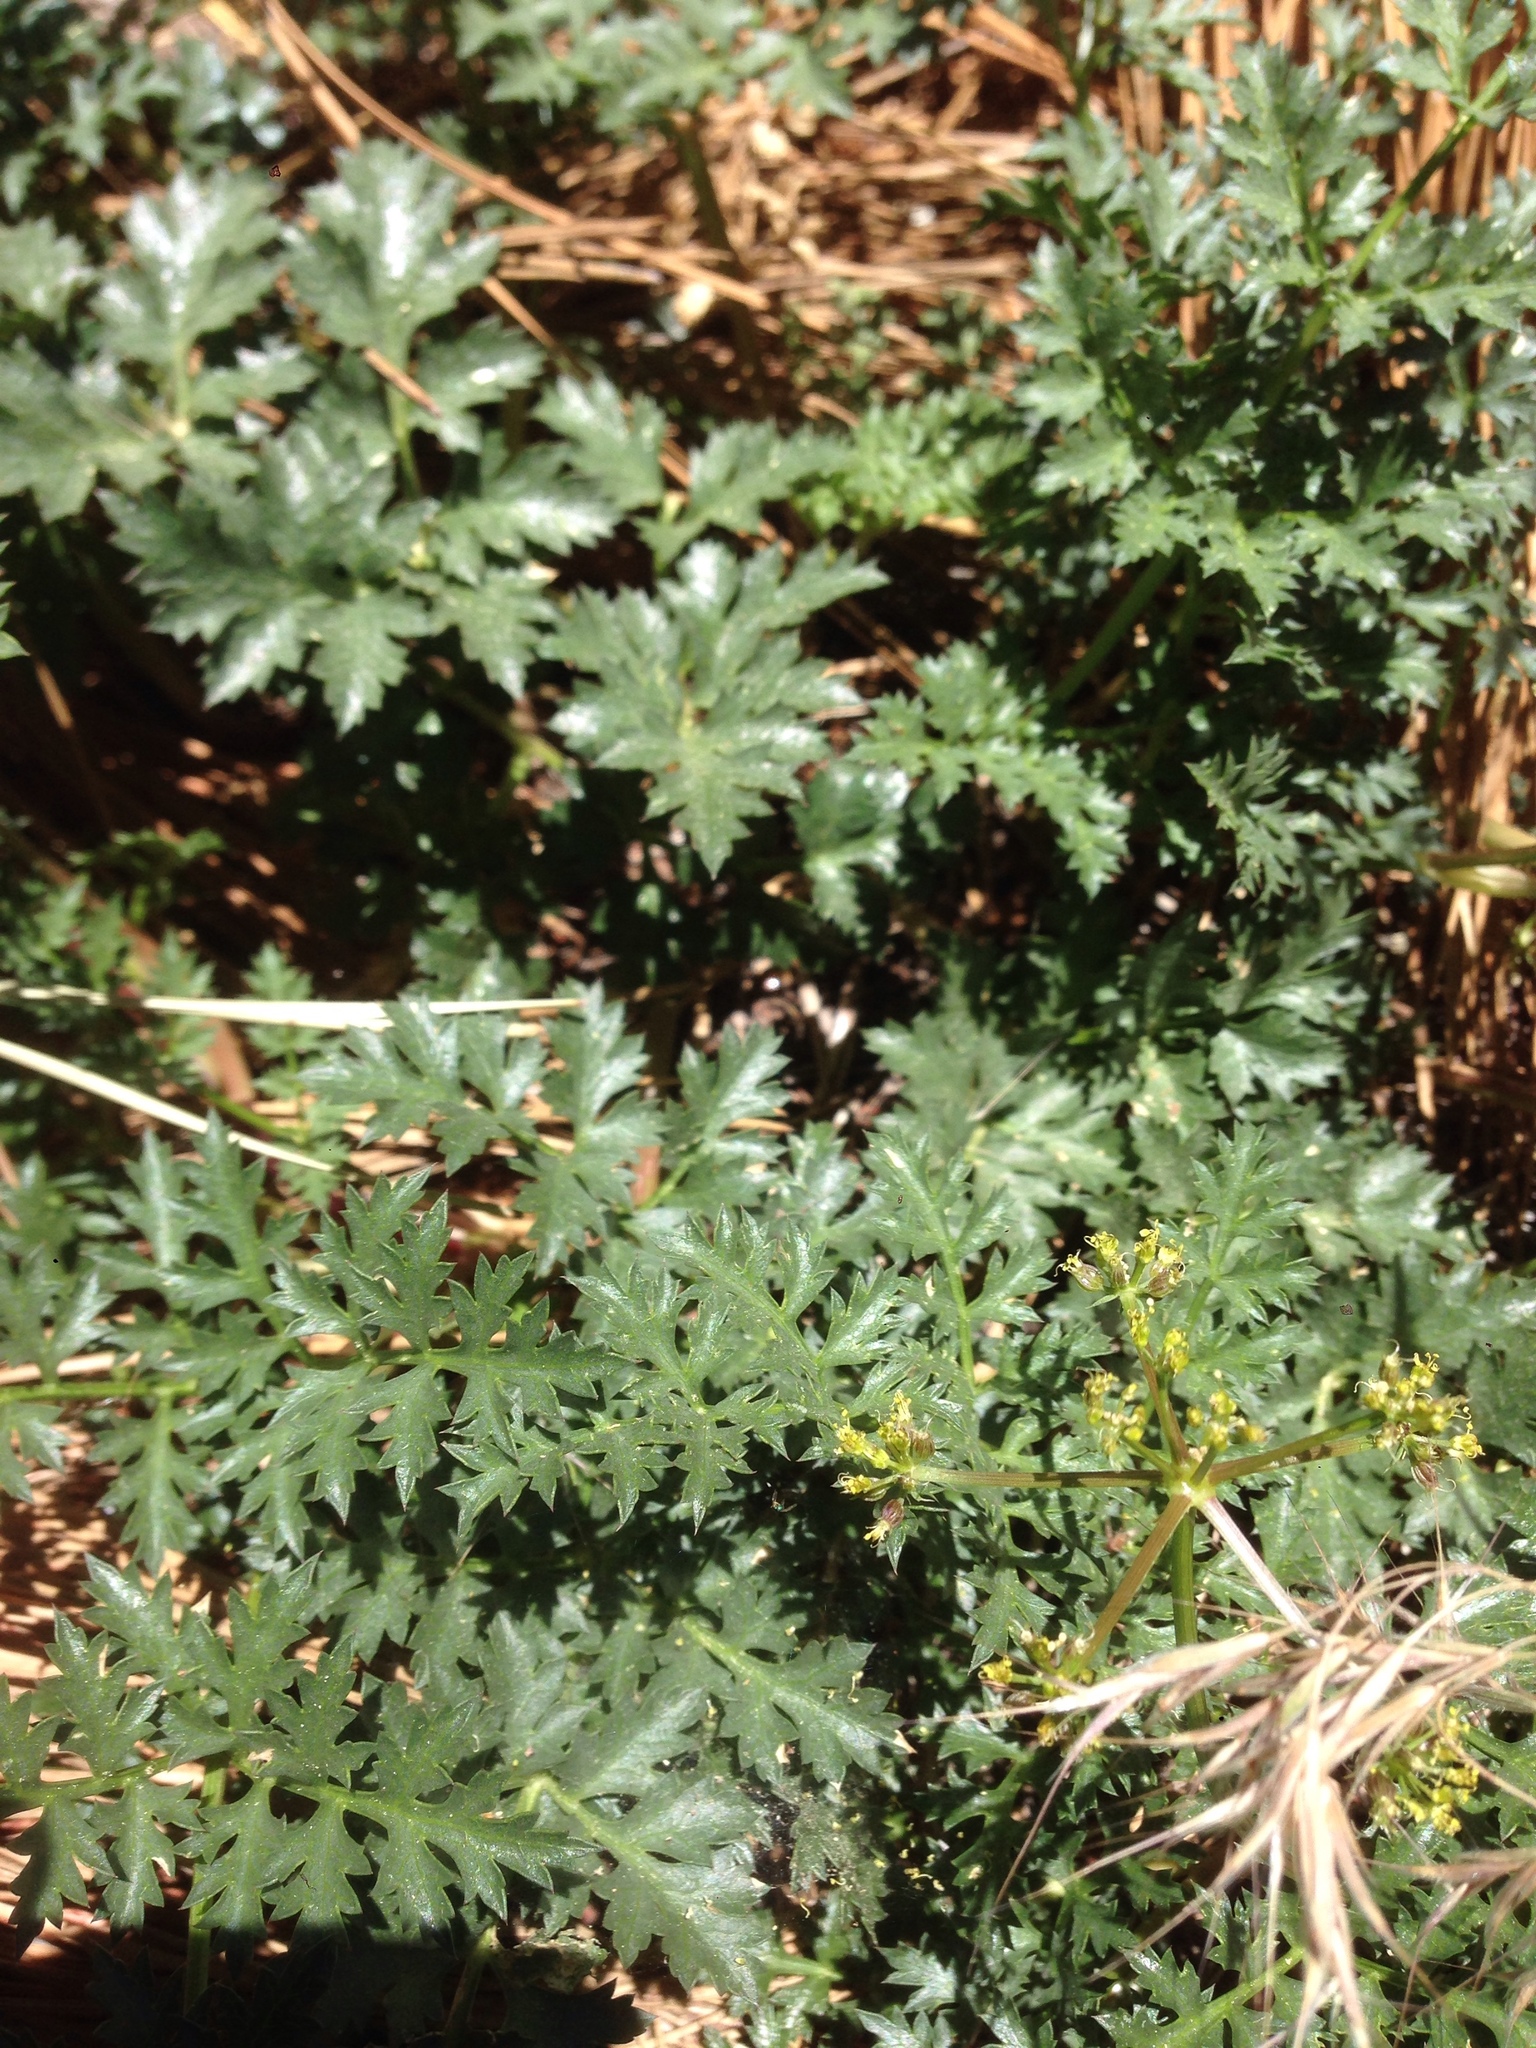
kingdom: Plantae
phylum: Tracheophyta
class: Magnoliopsida
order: Apiales
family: Apiaceae
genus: Tauschia
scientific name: Tauschia parishii
